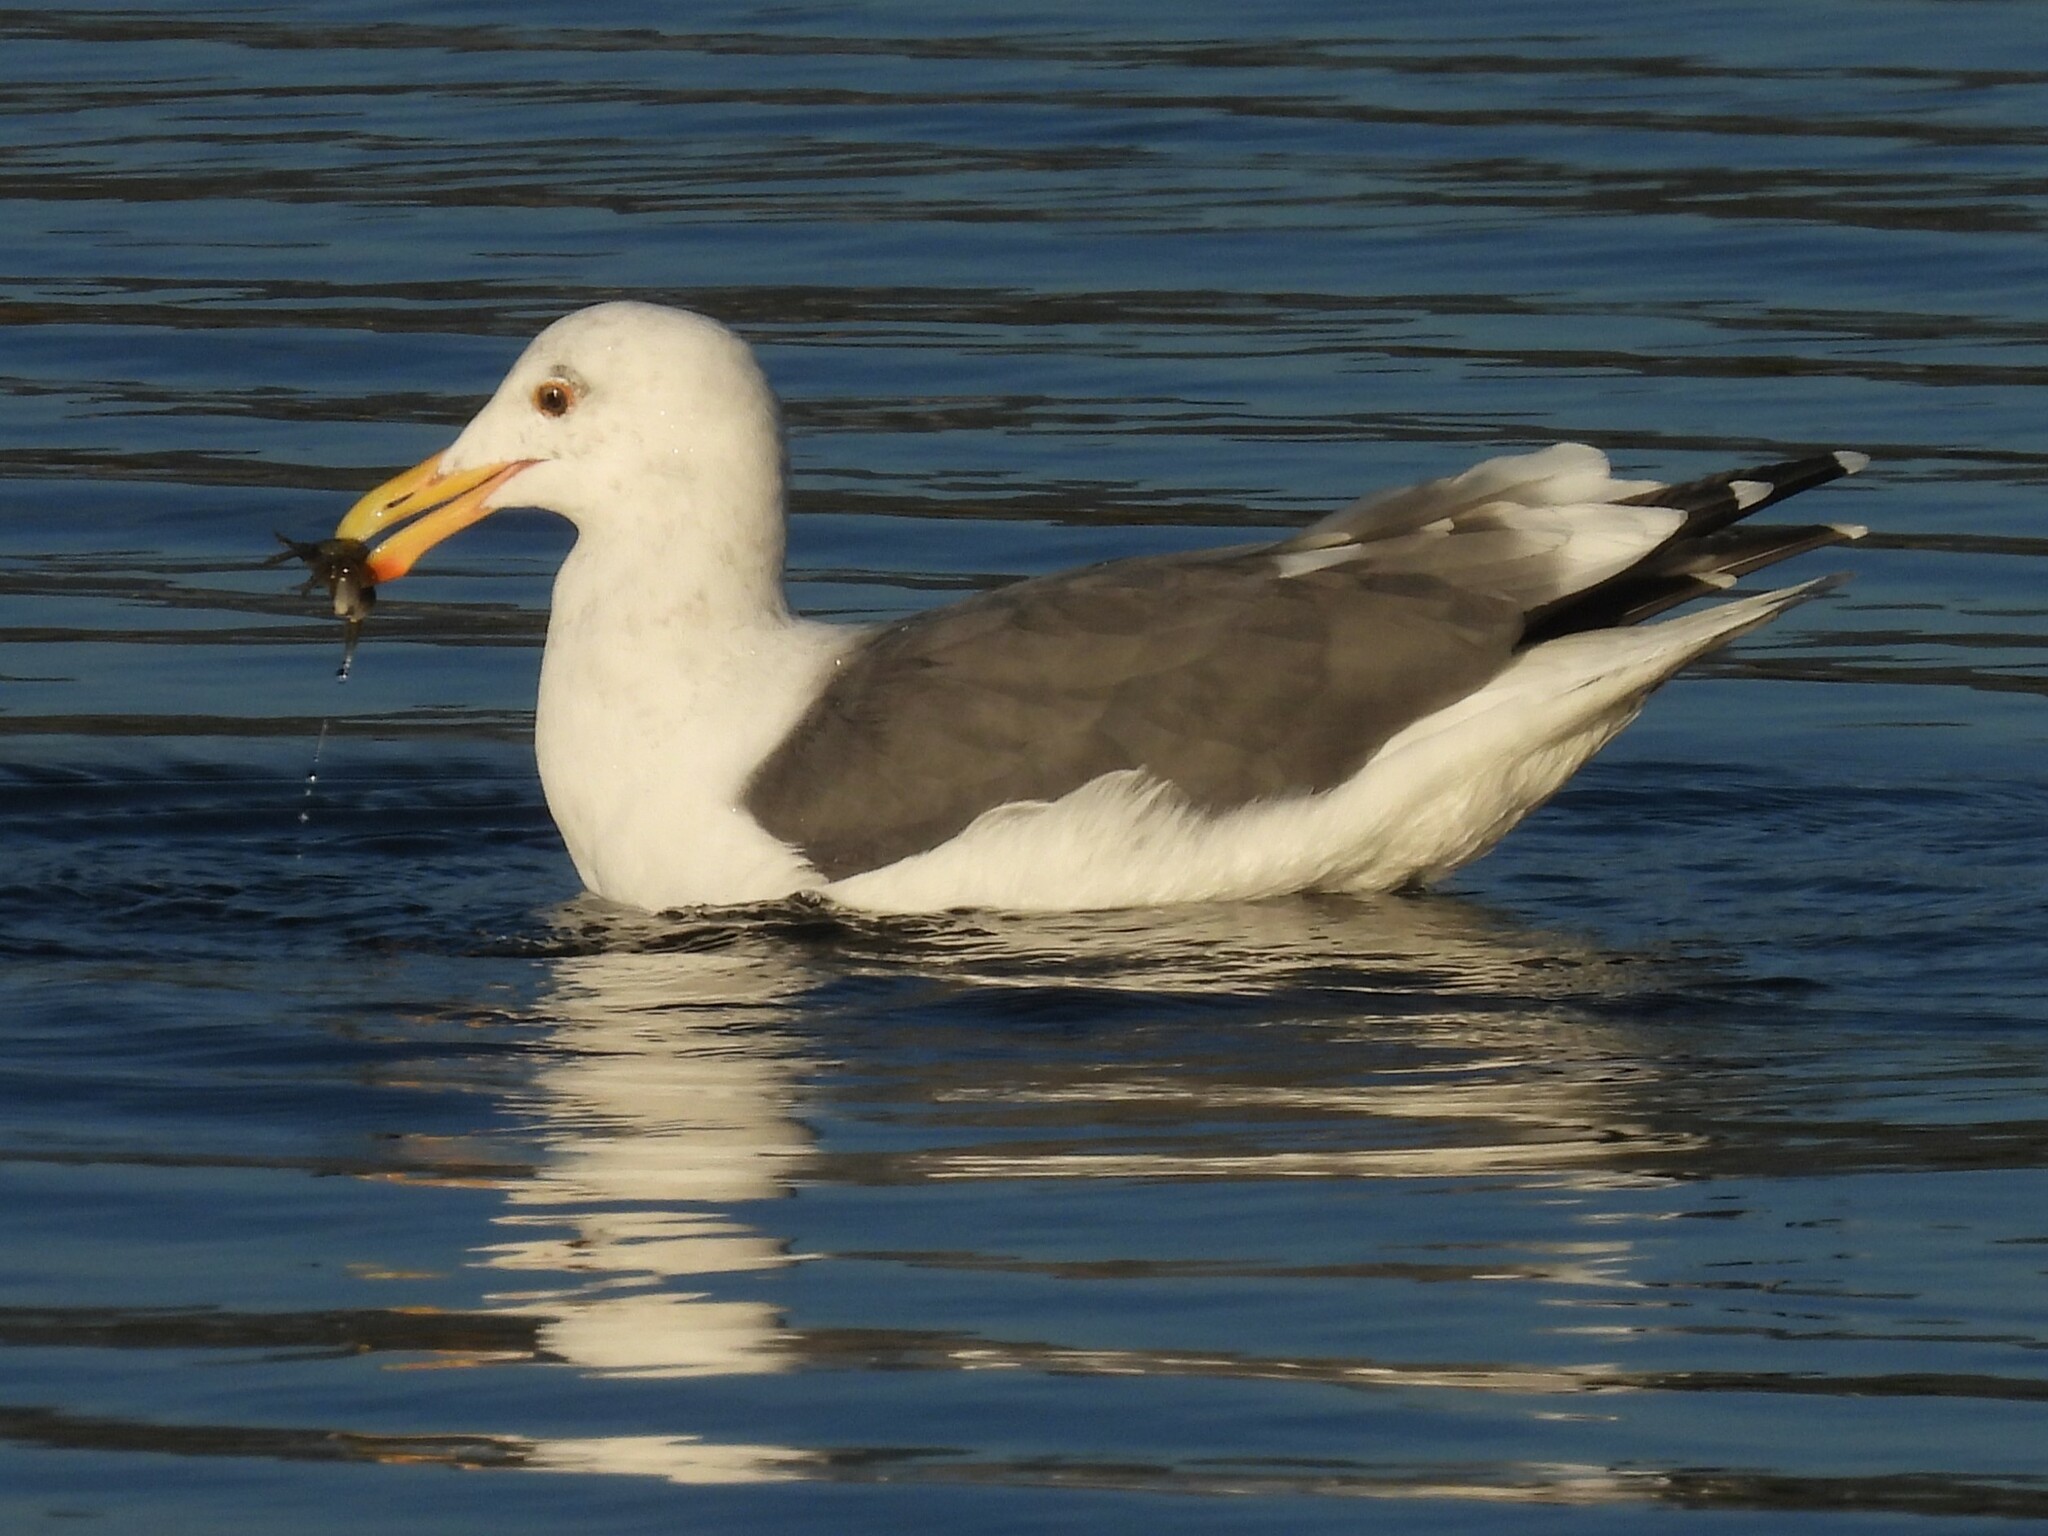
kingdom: Animalia
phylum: Chordata
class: Aves
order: Charadriiformes
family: Laridae
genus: Larus
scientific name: Larus occidentalis
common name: Western gull
